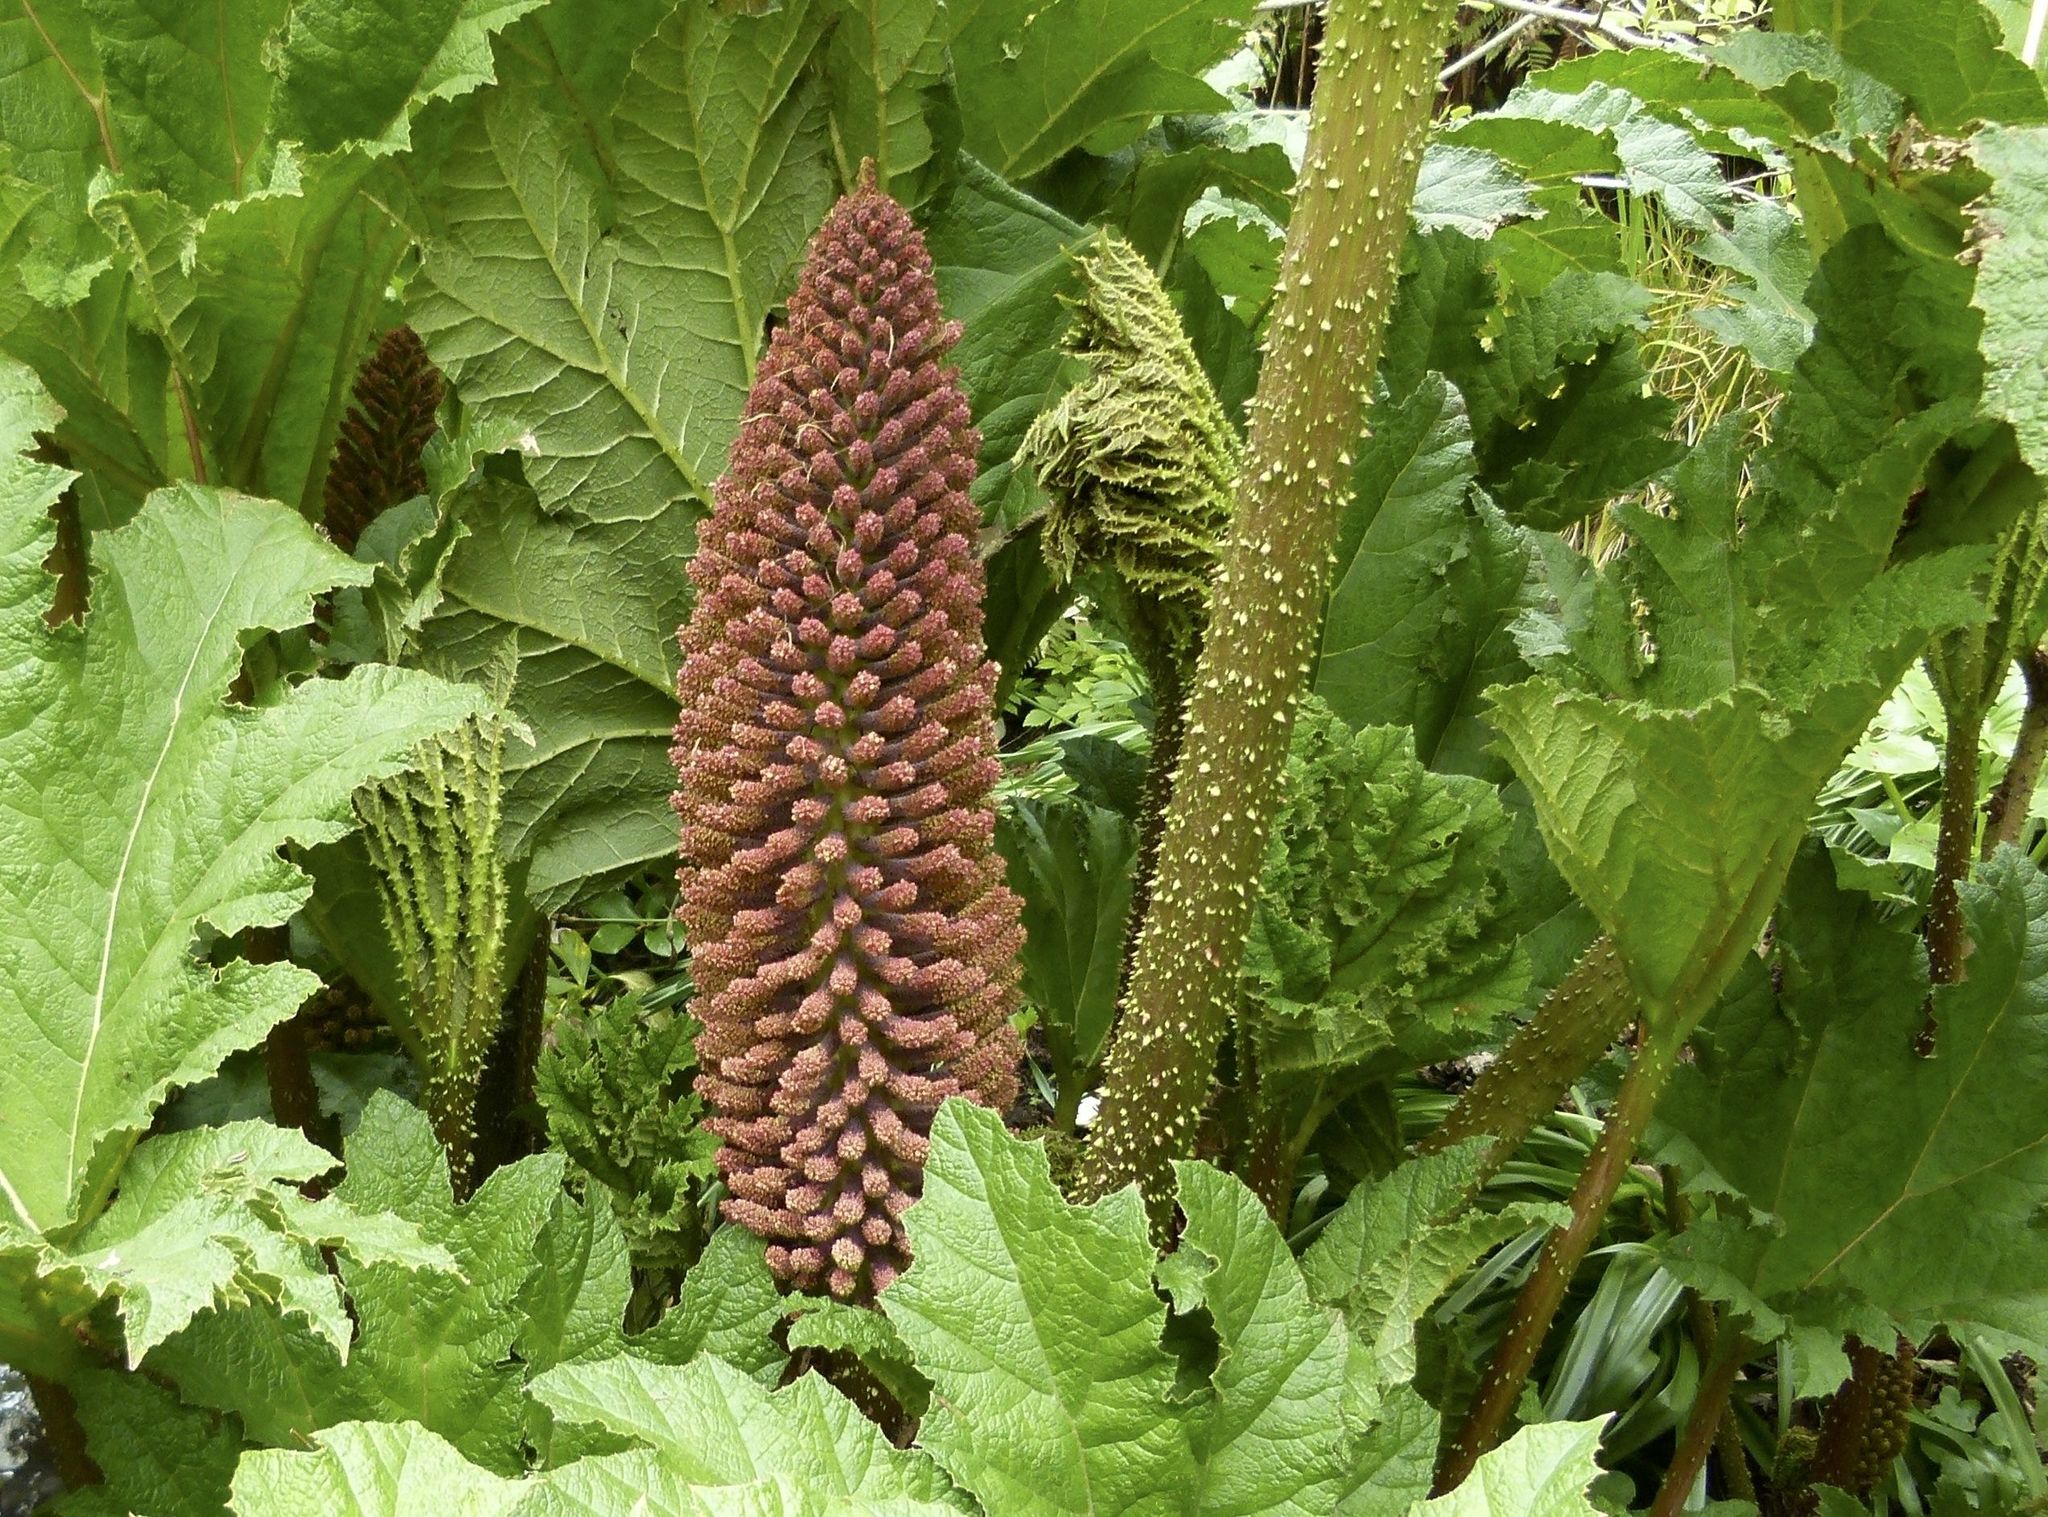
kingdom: Plantae
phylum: Tracheophyta
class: Magnoliopsida
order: Gunnerales
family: Gunneraceae
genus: Gunnera
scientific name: Gunnera tinctoria
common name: Giant-rhubarb
